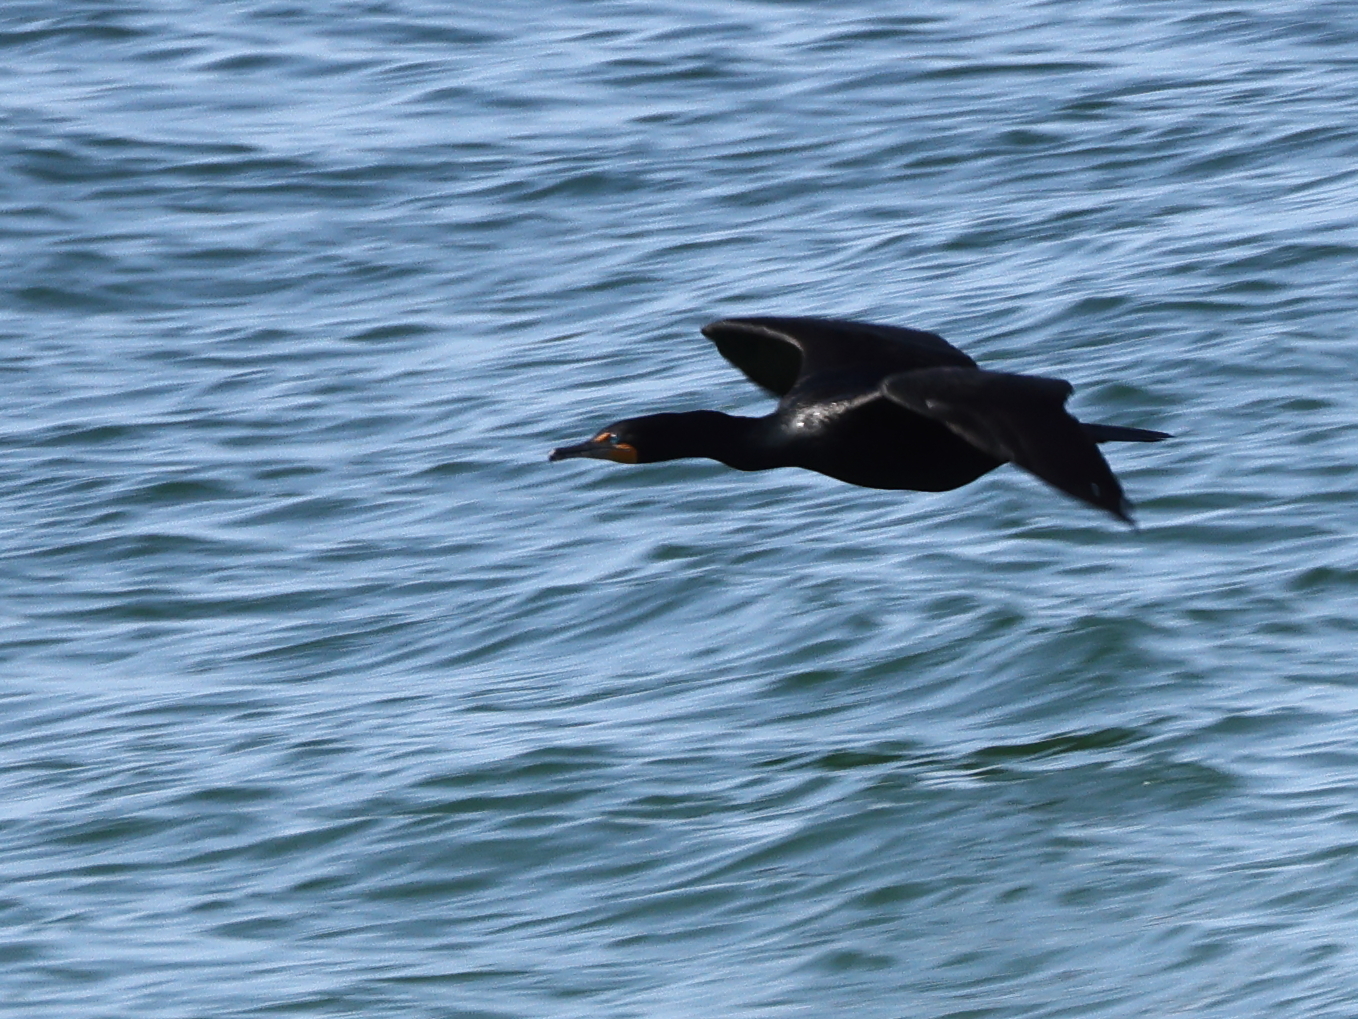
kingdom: Animalia
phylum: Chordata
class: Aves
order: Suliformes
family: Phalacrocoracidae
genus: Phalacrocorax
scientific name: Phalacrocorax auritus
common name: Double-crested cormorant
